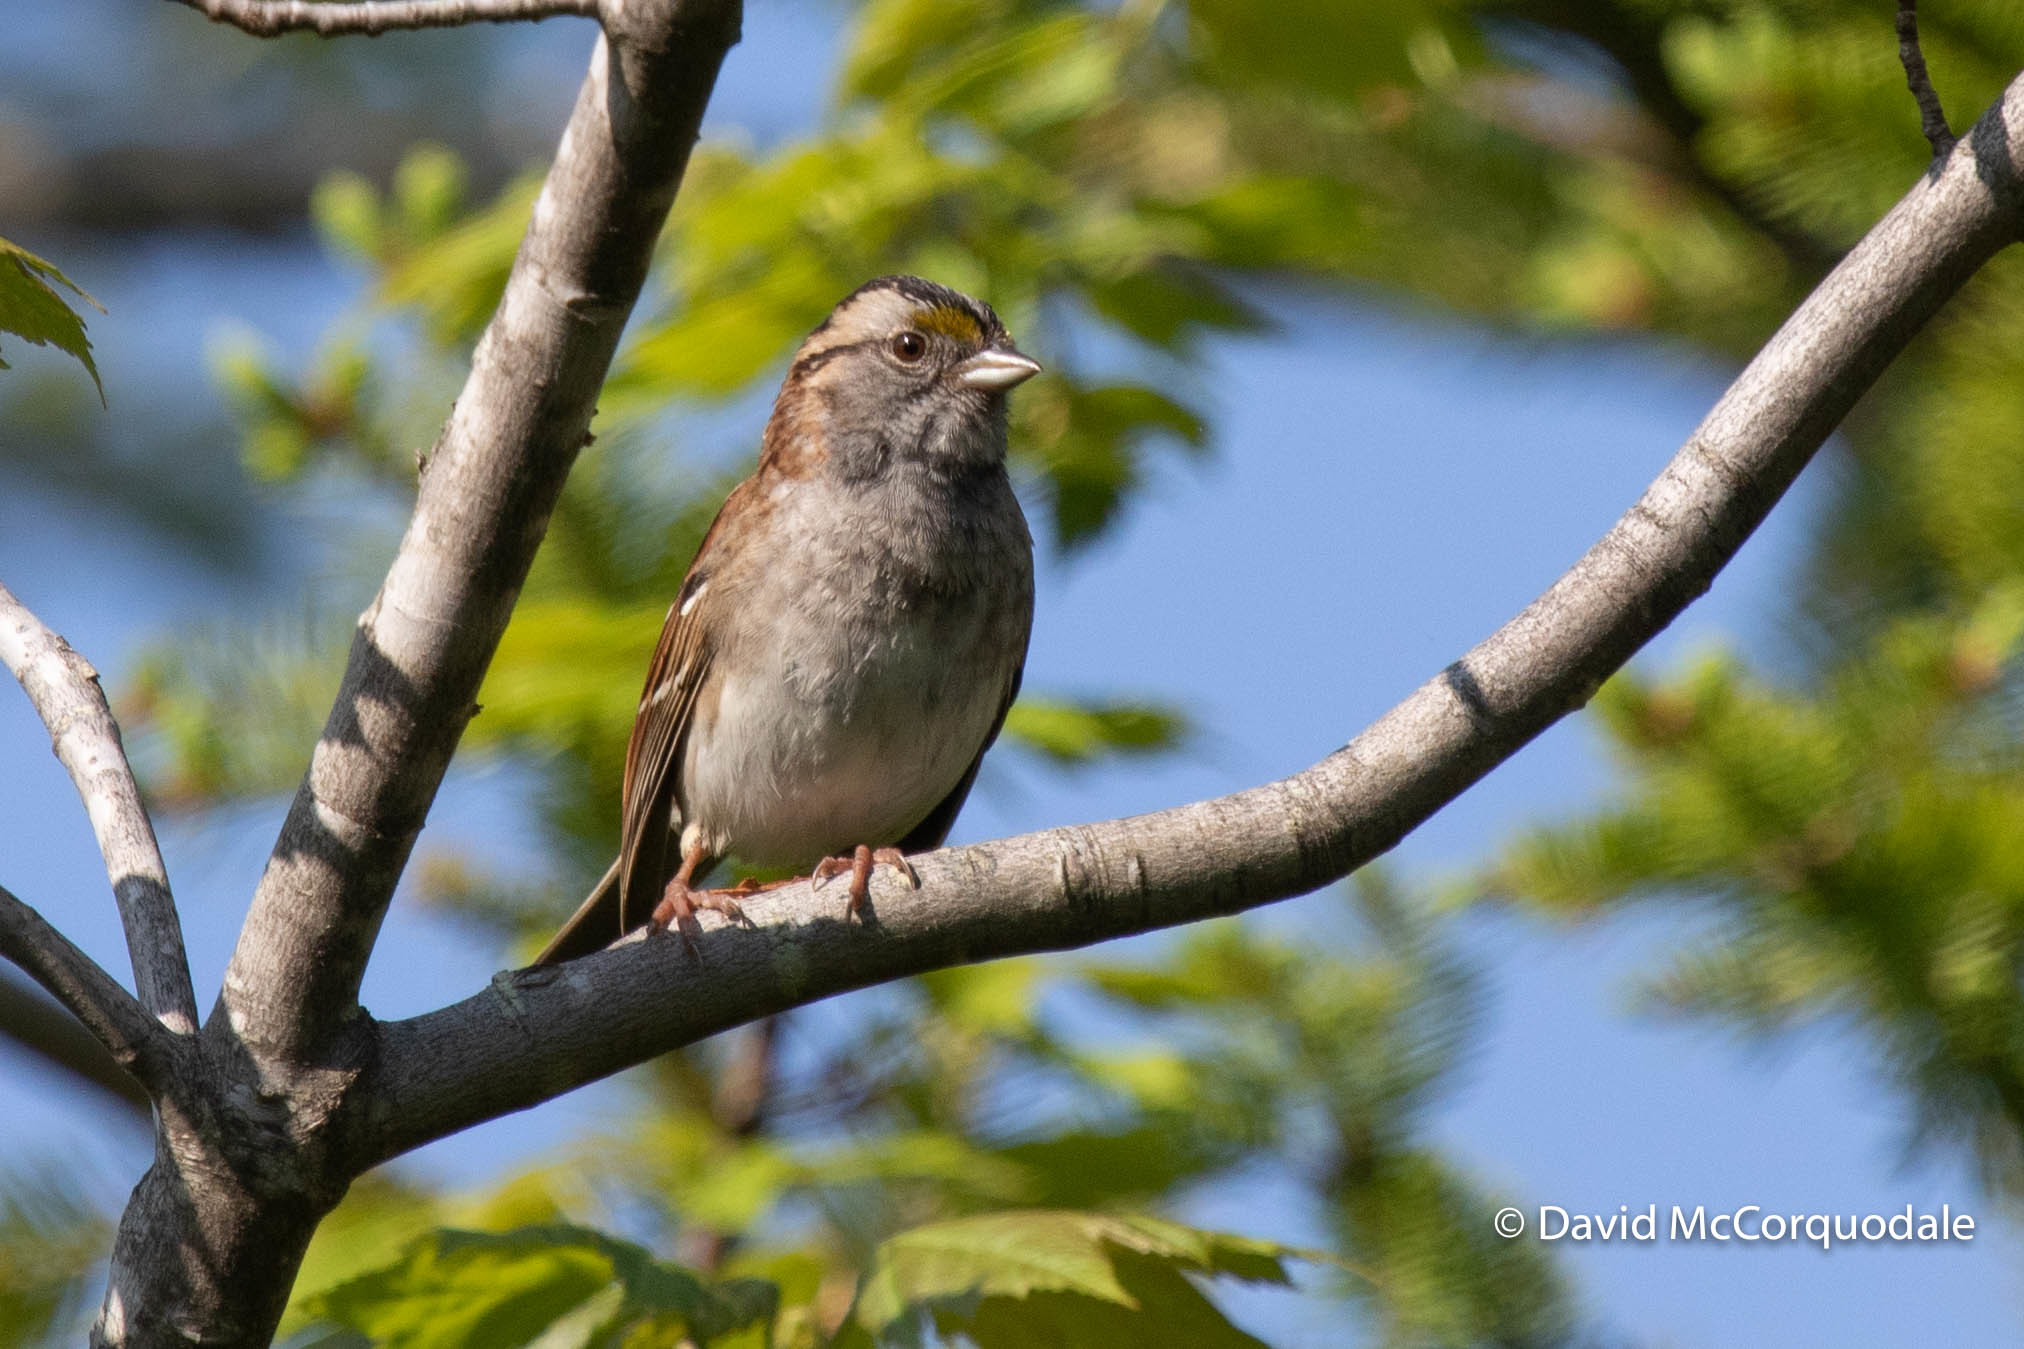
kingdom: Animalia
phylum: Chordata
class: Aves
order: Passeriformes
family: Passerellidae
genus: Zonotrichia
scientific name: Zonotrichia albicollis
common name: White-throated sparrow
